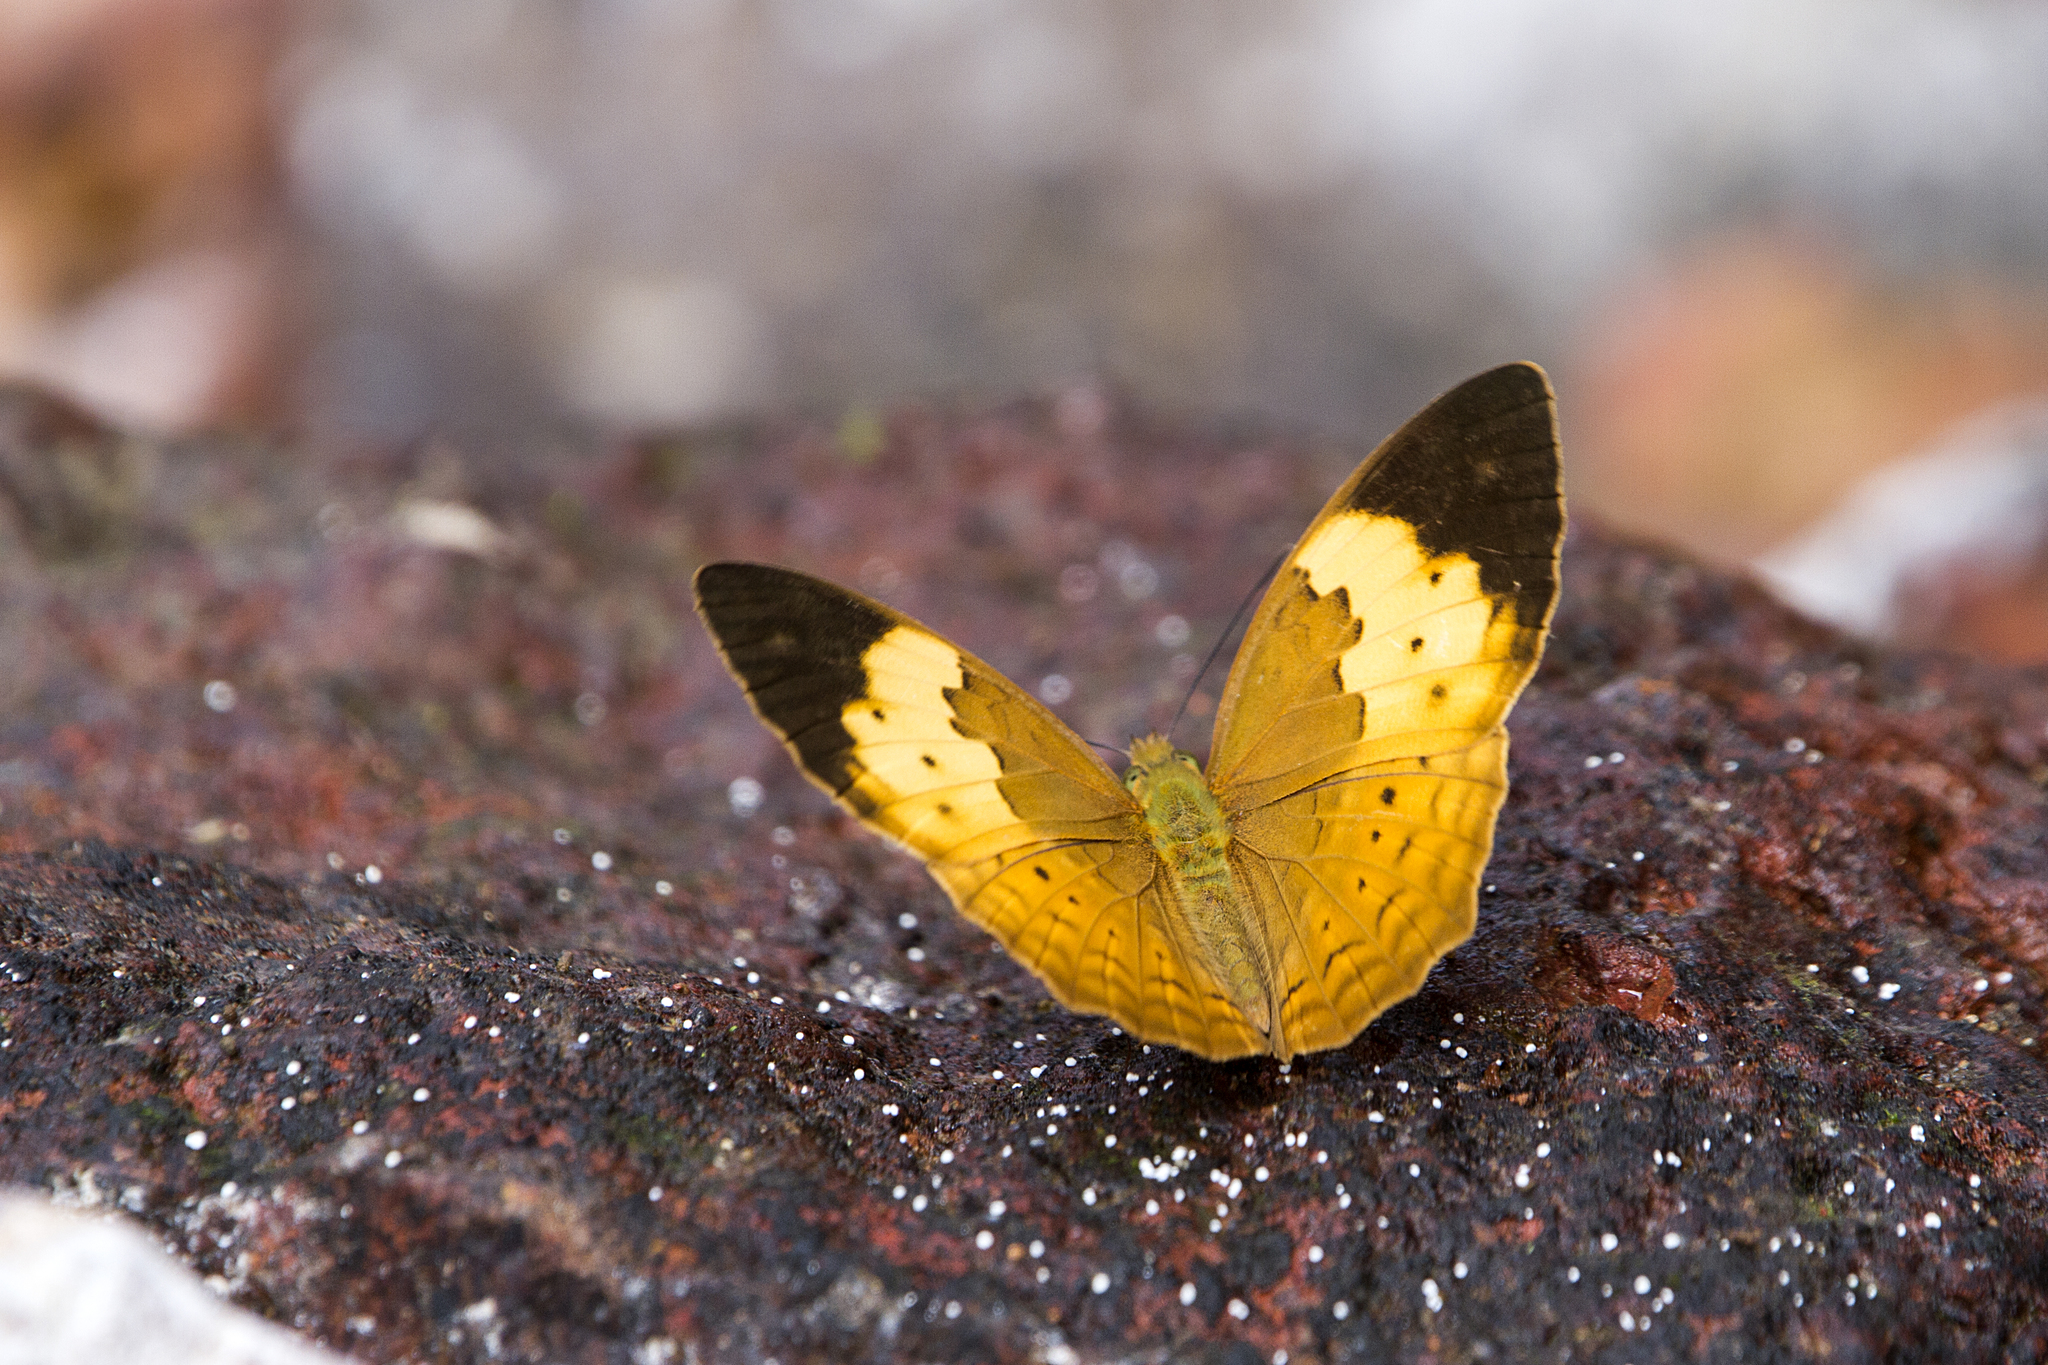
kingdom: Animalia
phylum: Arthropoda
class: Insecta
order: Lepidoptera
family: Nymphalidae
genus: Cupha
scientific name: Cupha erymanthis
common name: Rustic
